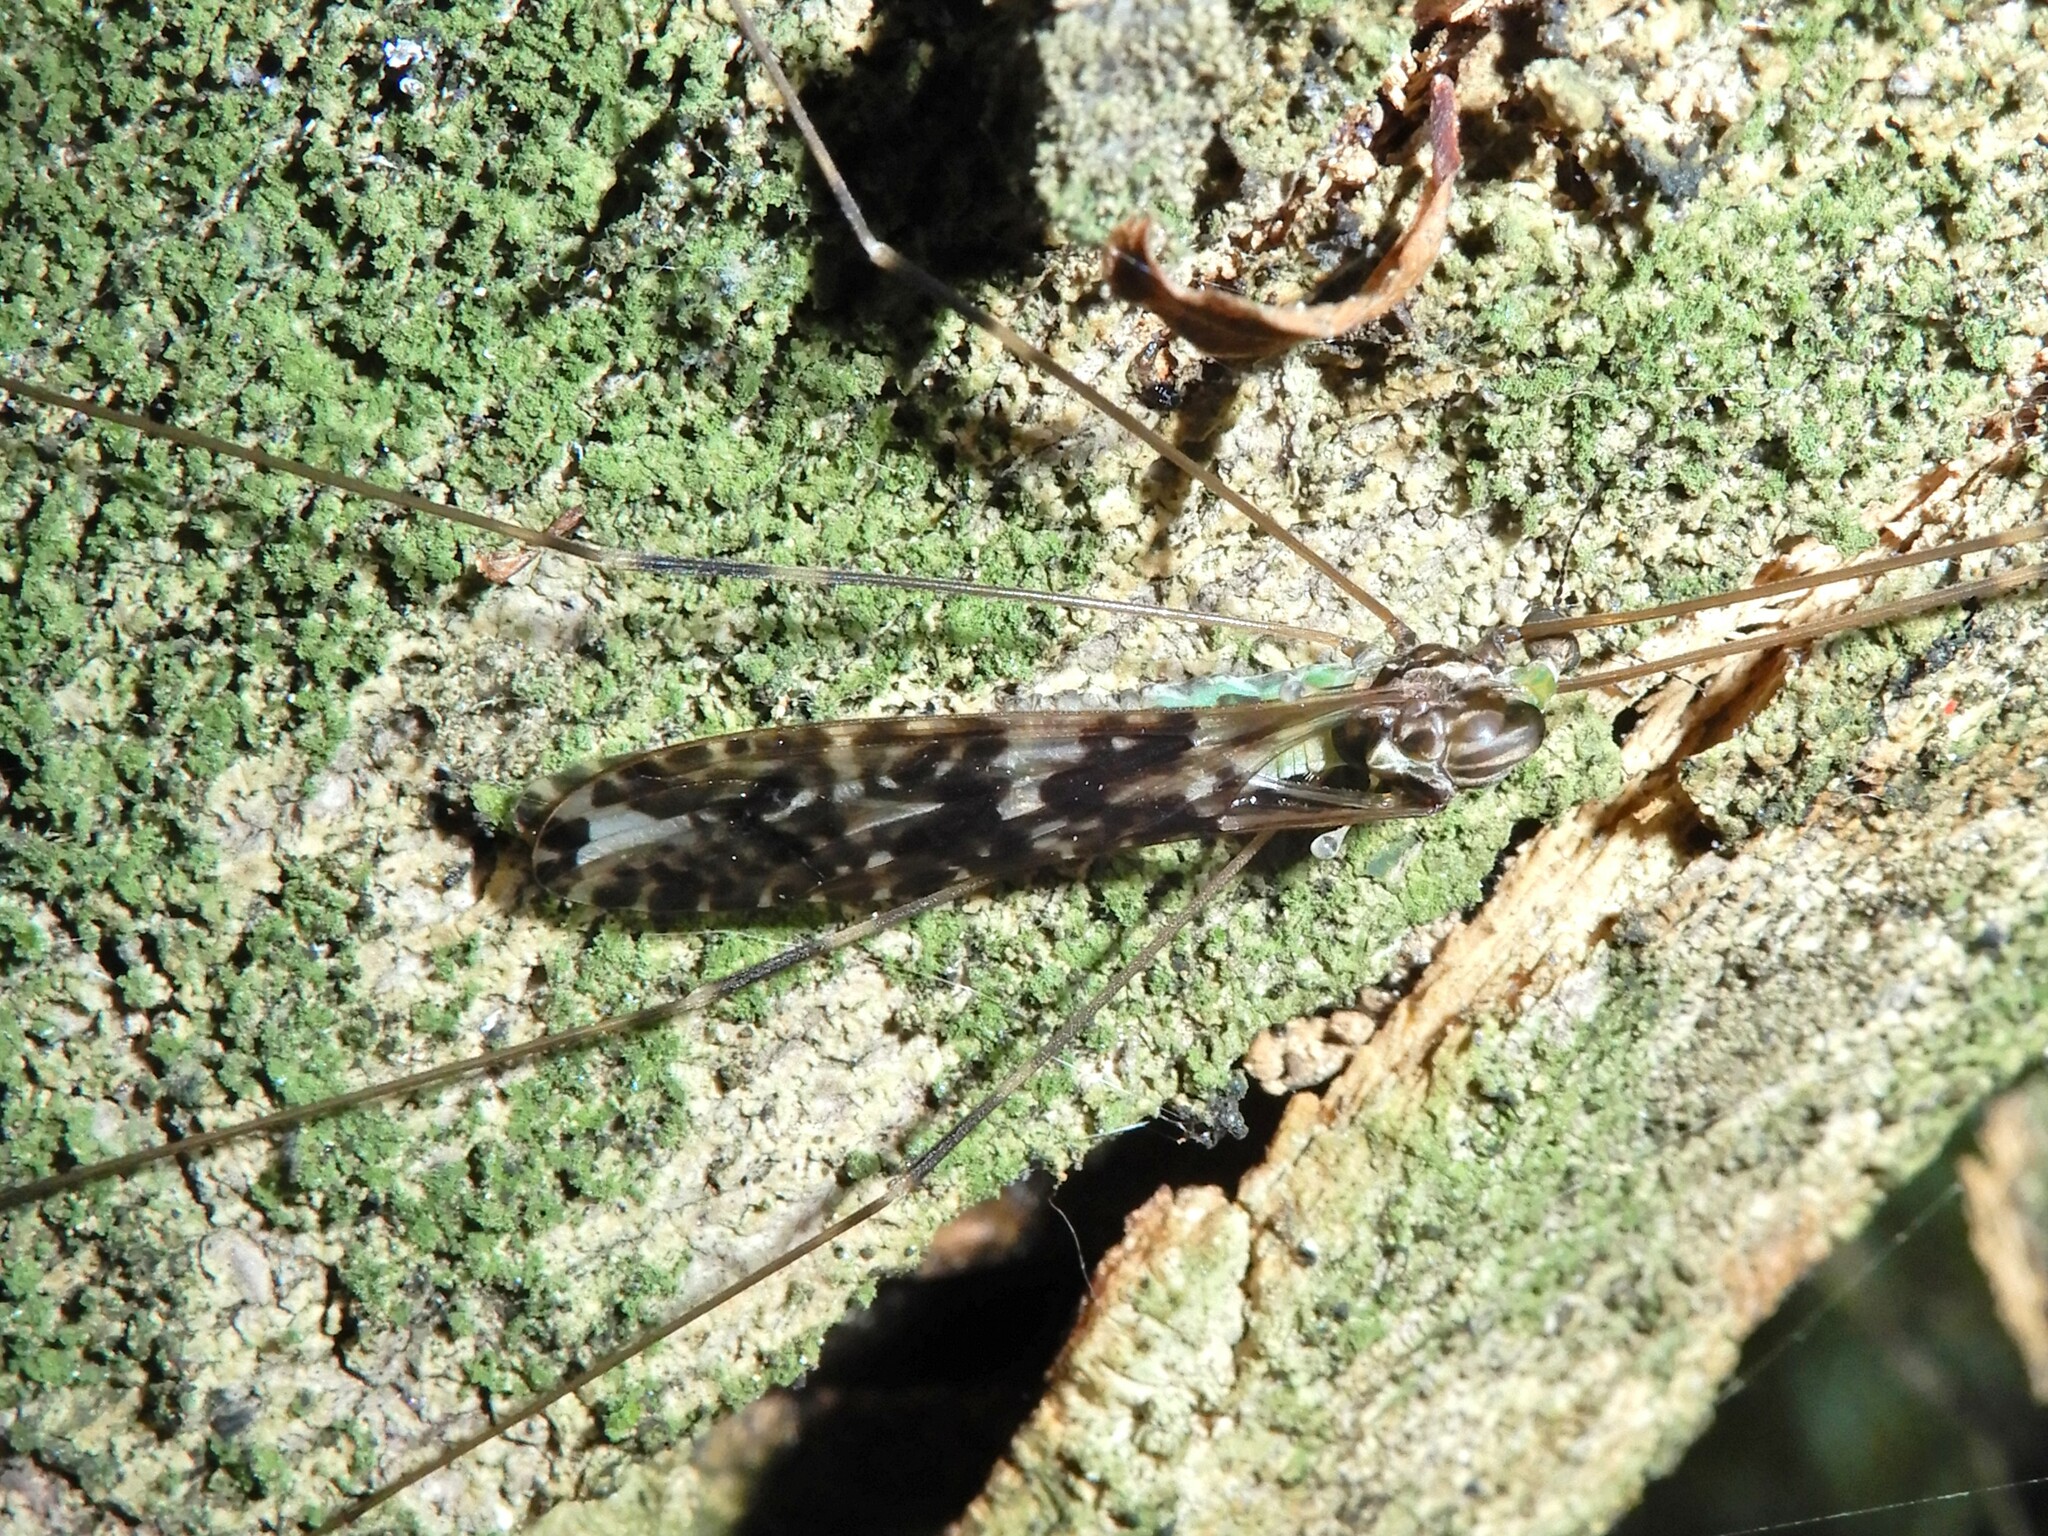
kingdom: Animalia
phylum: Arthropoda
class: Insecta
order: Diptera
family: Limoniidae
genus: Discobola
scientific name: Discobola dohrni
